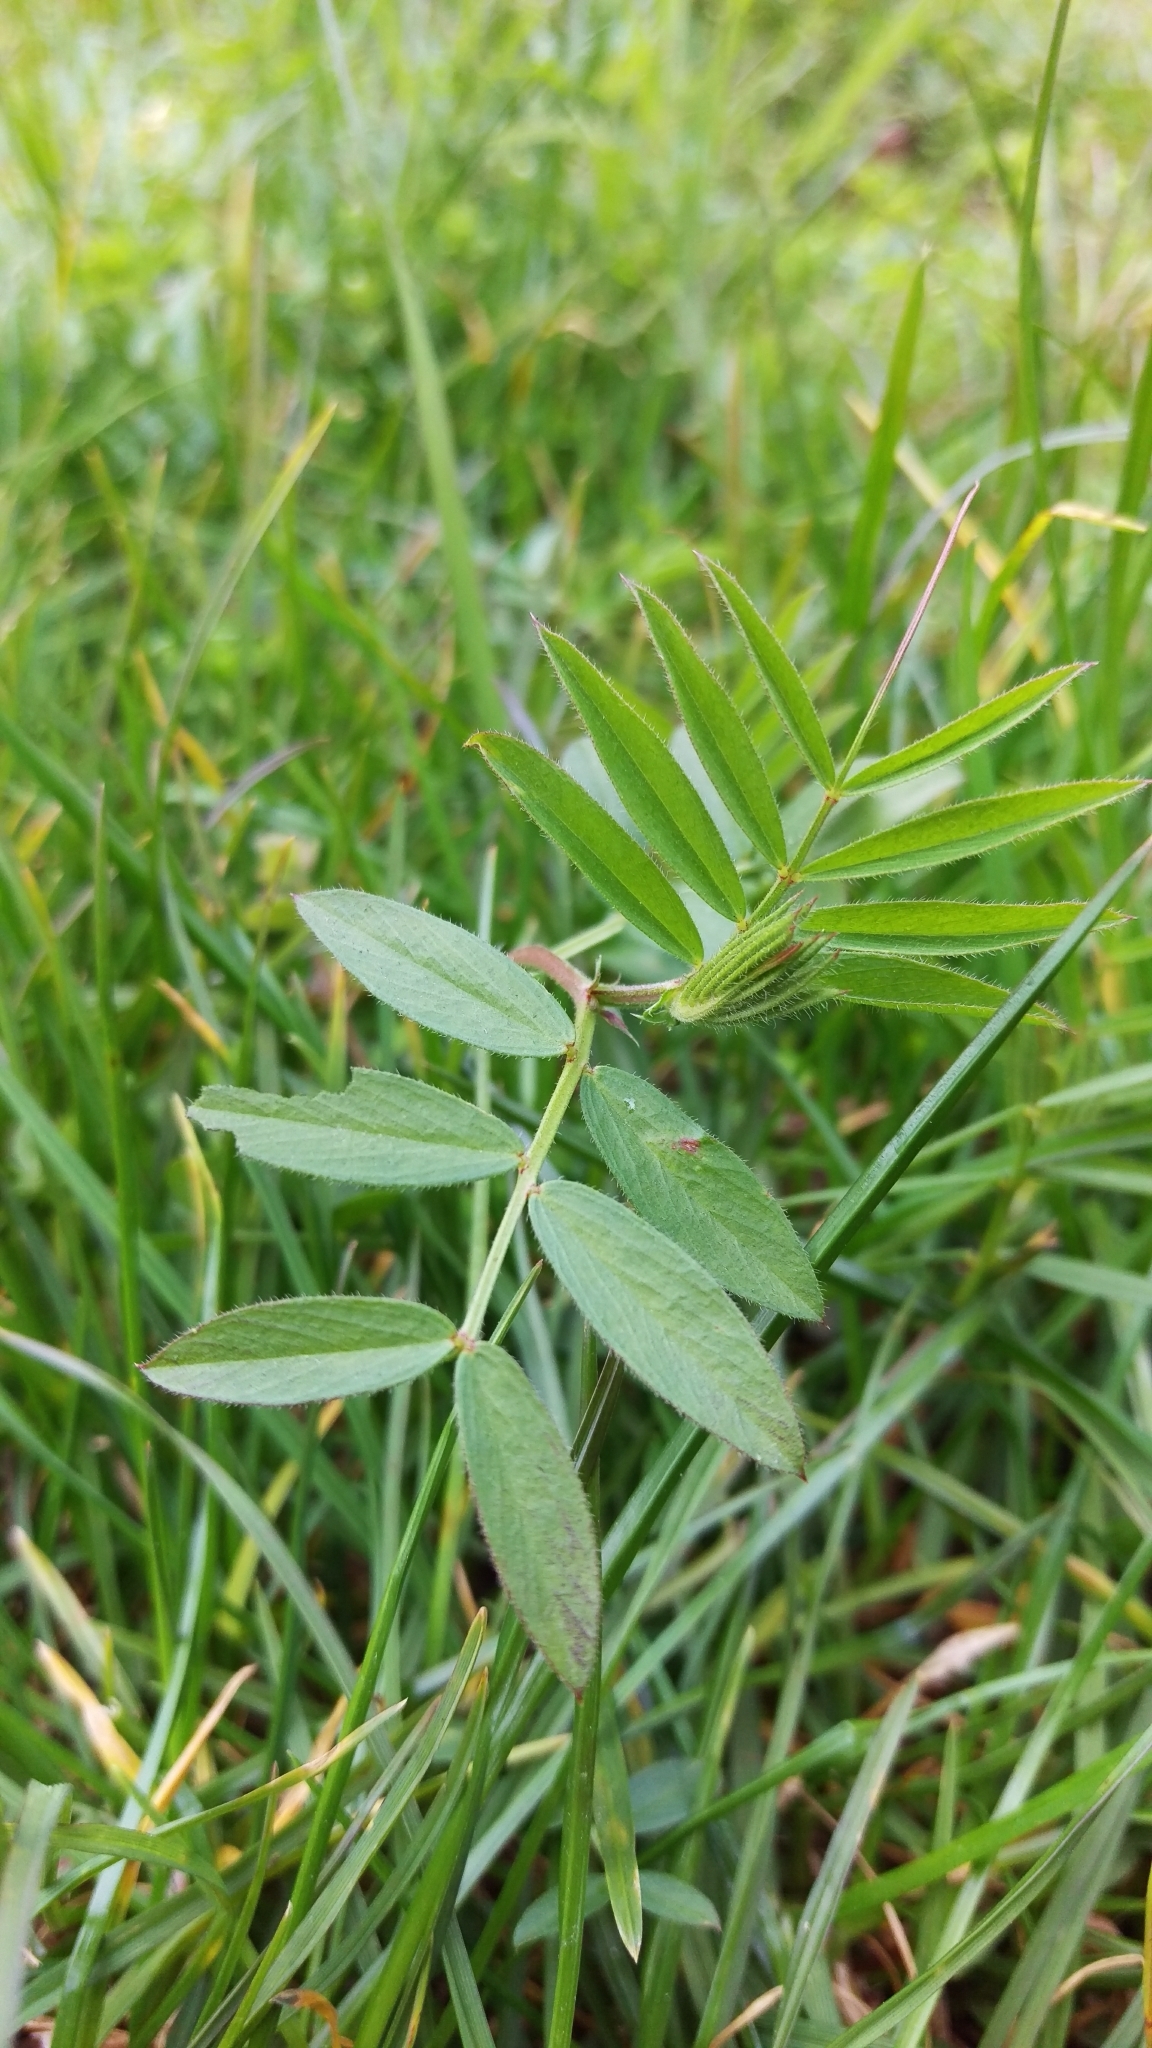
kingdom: Plantae
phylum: Tracheophyta
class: Magnoliopsida
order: Fabales
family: Fabaceae
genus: Vicia
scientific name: Vicia sativa
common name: Garden vetch
